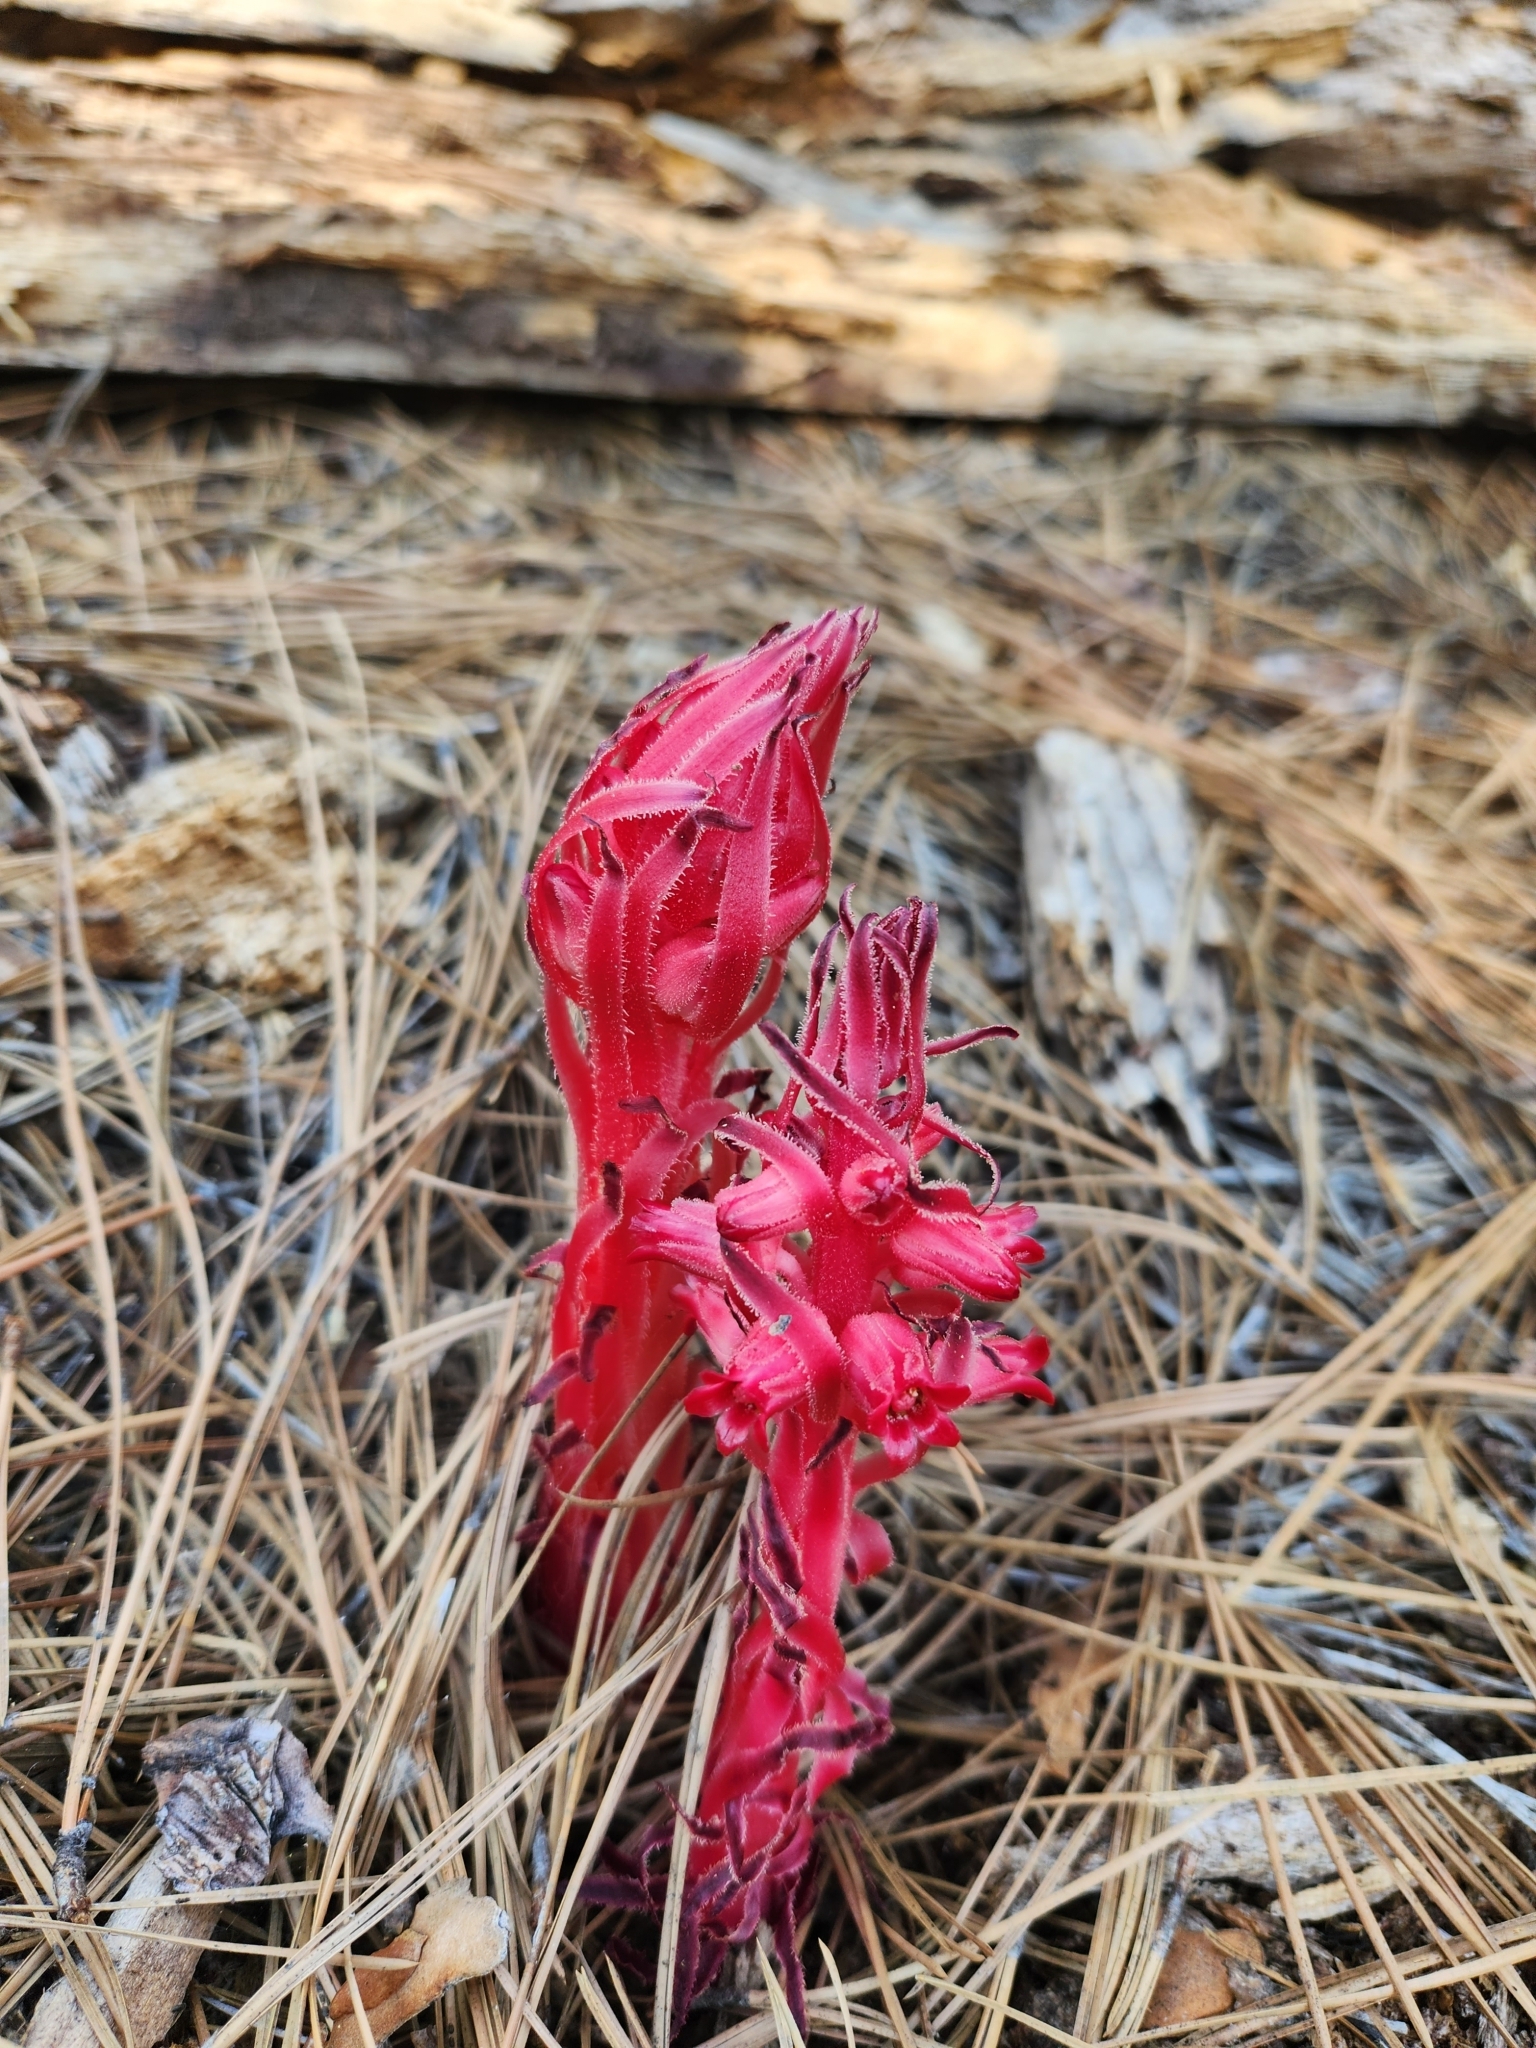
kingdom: Plantae
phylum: Tracheophyta
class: Magnoliopsida
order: Ericales
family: Ericaceae
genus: Sarcodes
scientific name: Sarcodes sanguinea
